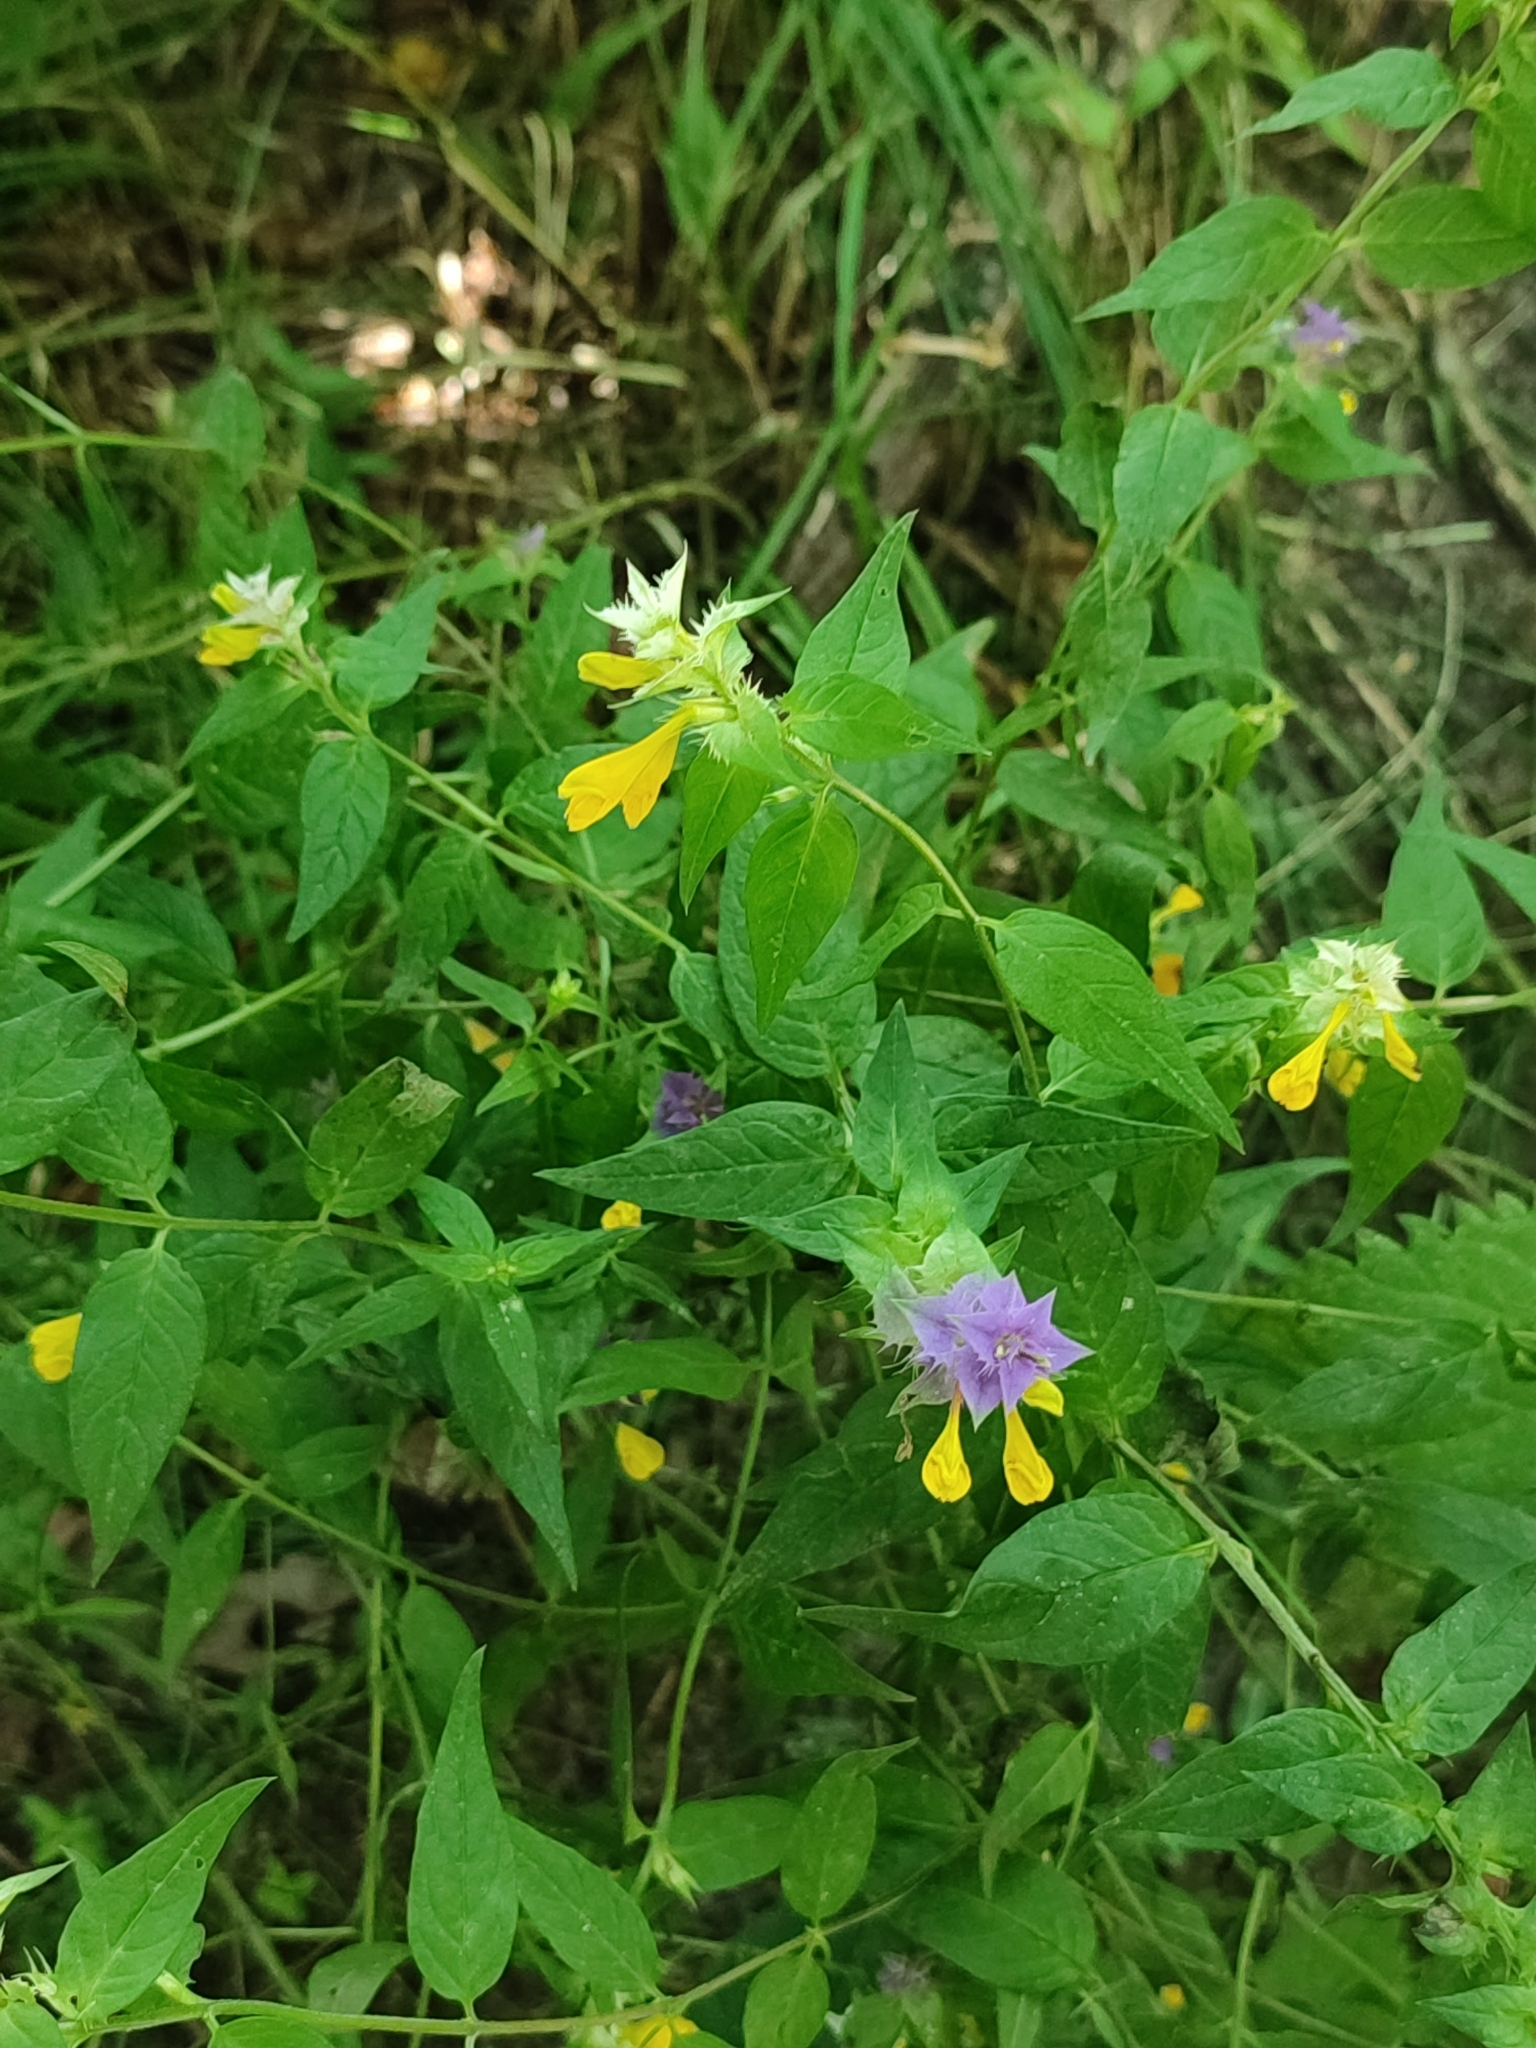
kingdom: Plantae
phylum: Tracheophyta
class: Magnoliopsida
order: Lamiales
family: Orobanchaceae
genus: Melampyrum
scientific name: Melampyrum nemorosum
